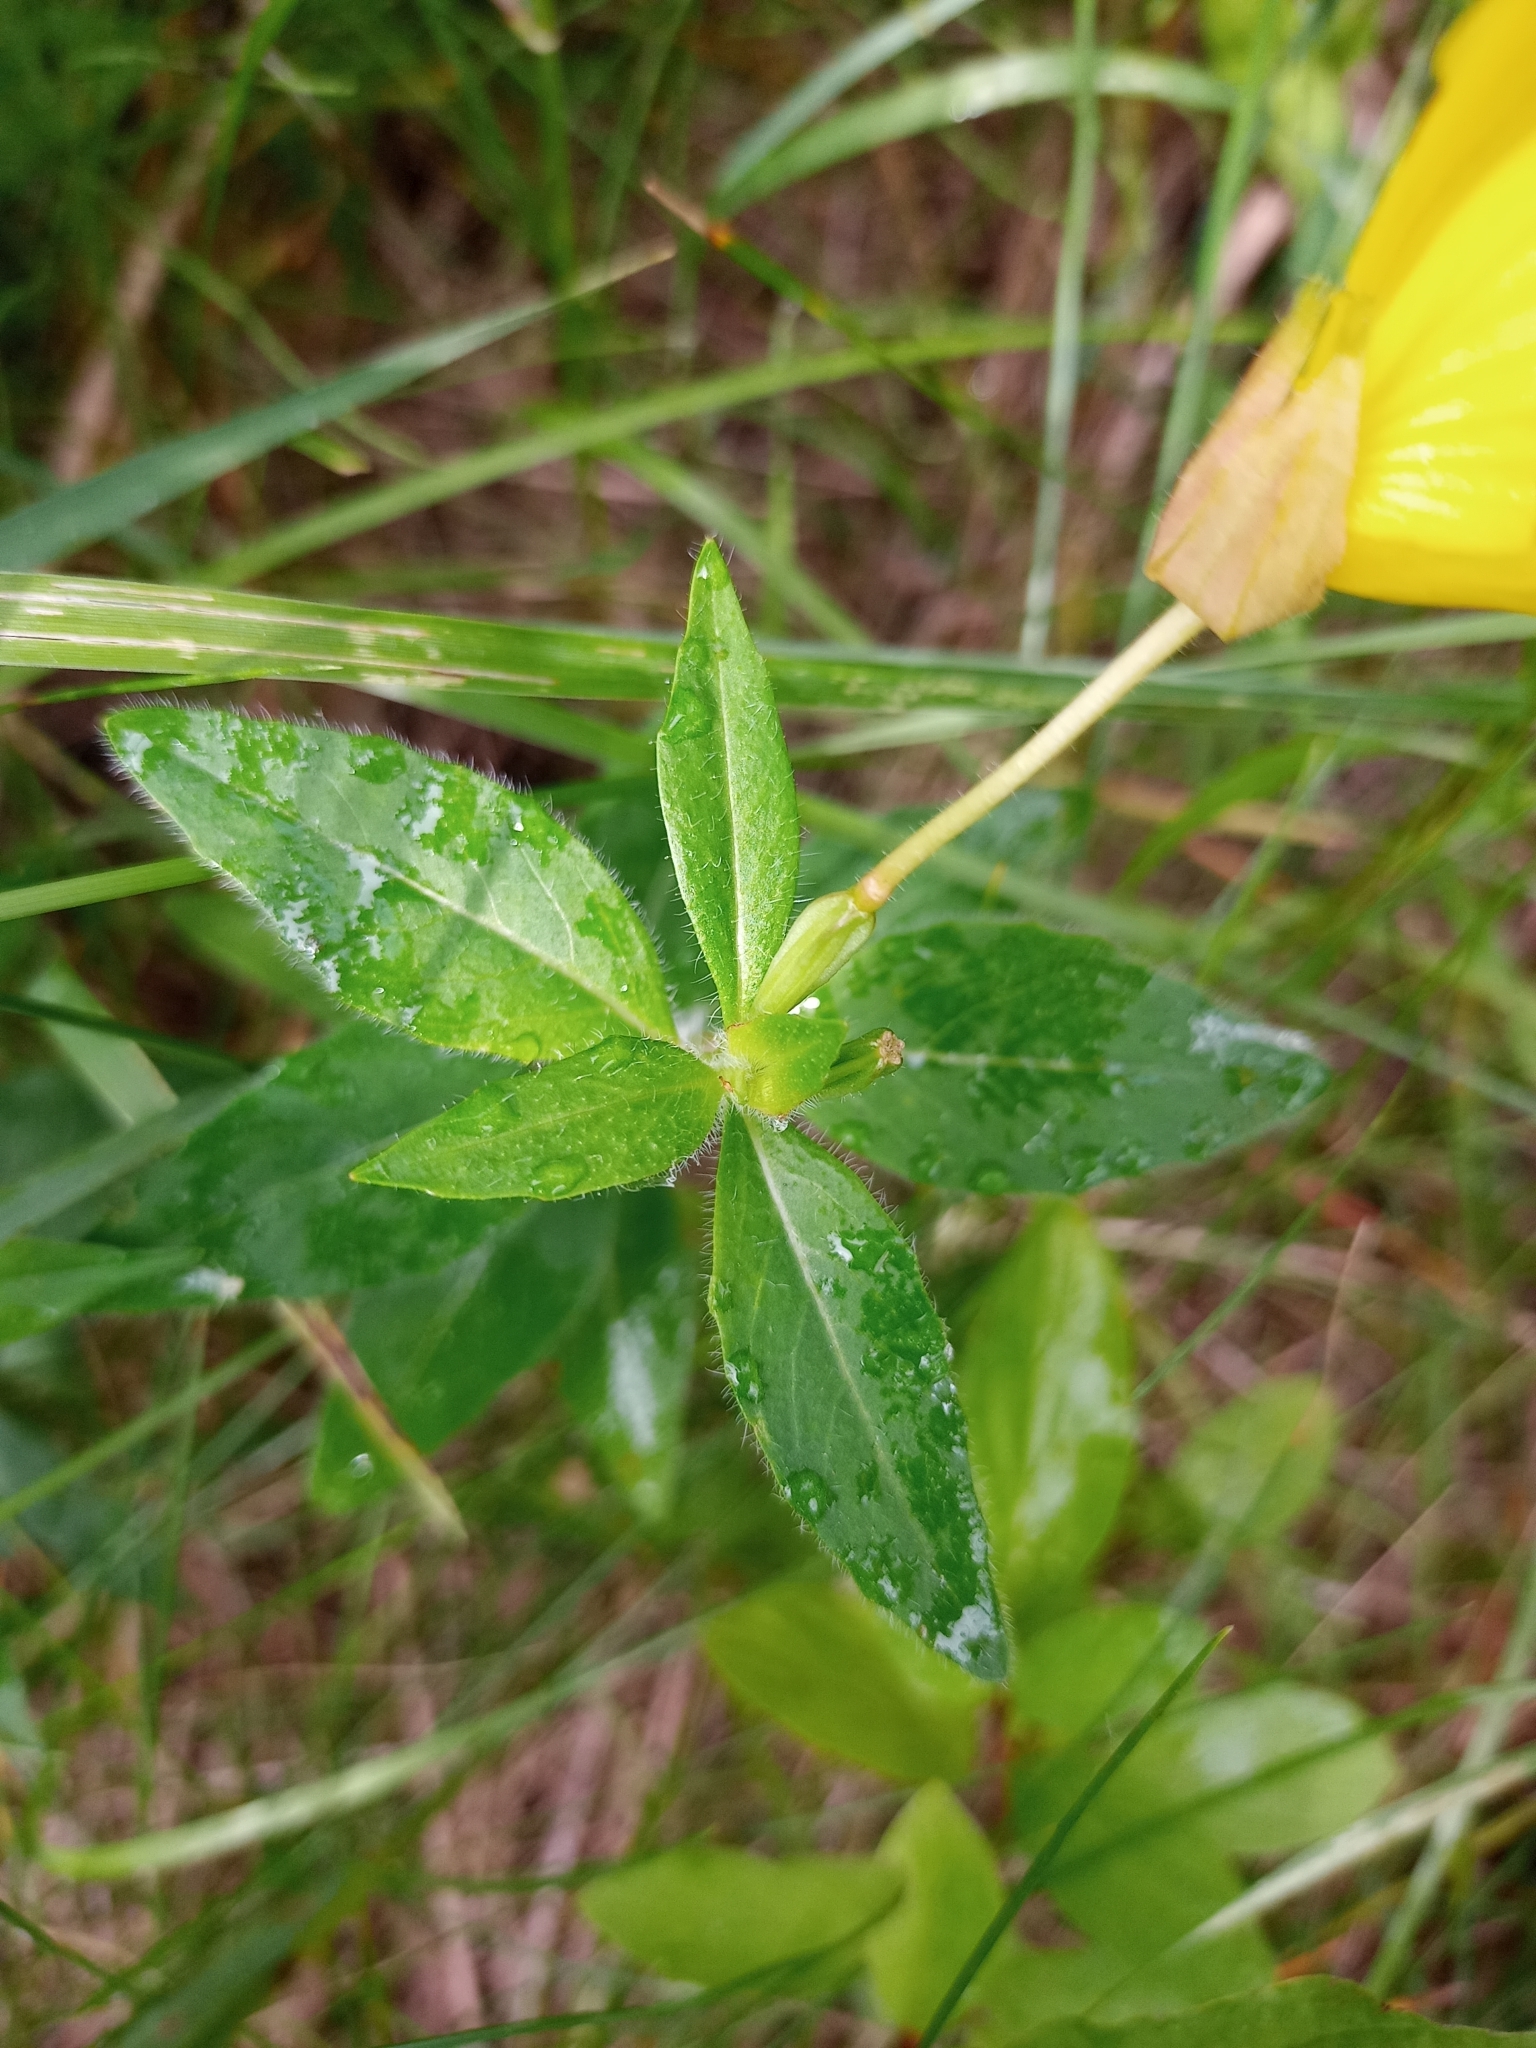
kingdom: Plantae
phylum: Tracheophyta
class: Magnoliopsida
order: Myrtales
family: Onagraceae
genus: Oenothera
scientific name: Oenothera pilosella
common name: Finely-pilose evening-primrose
